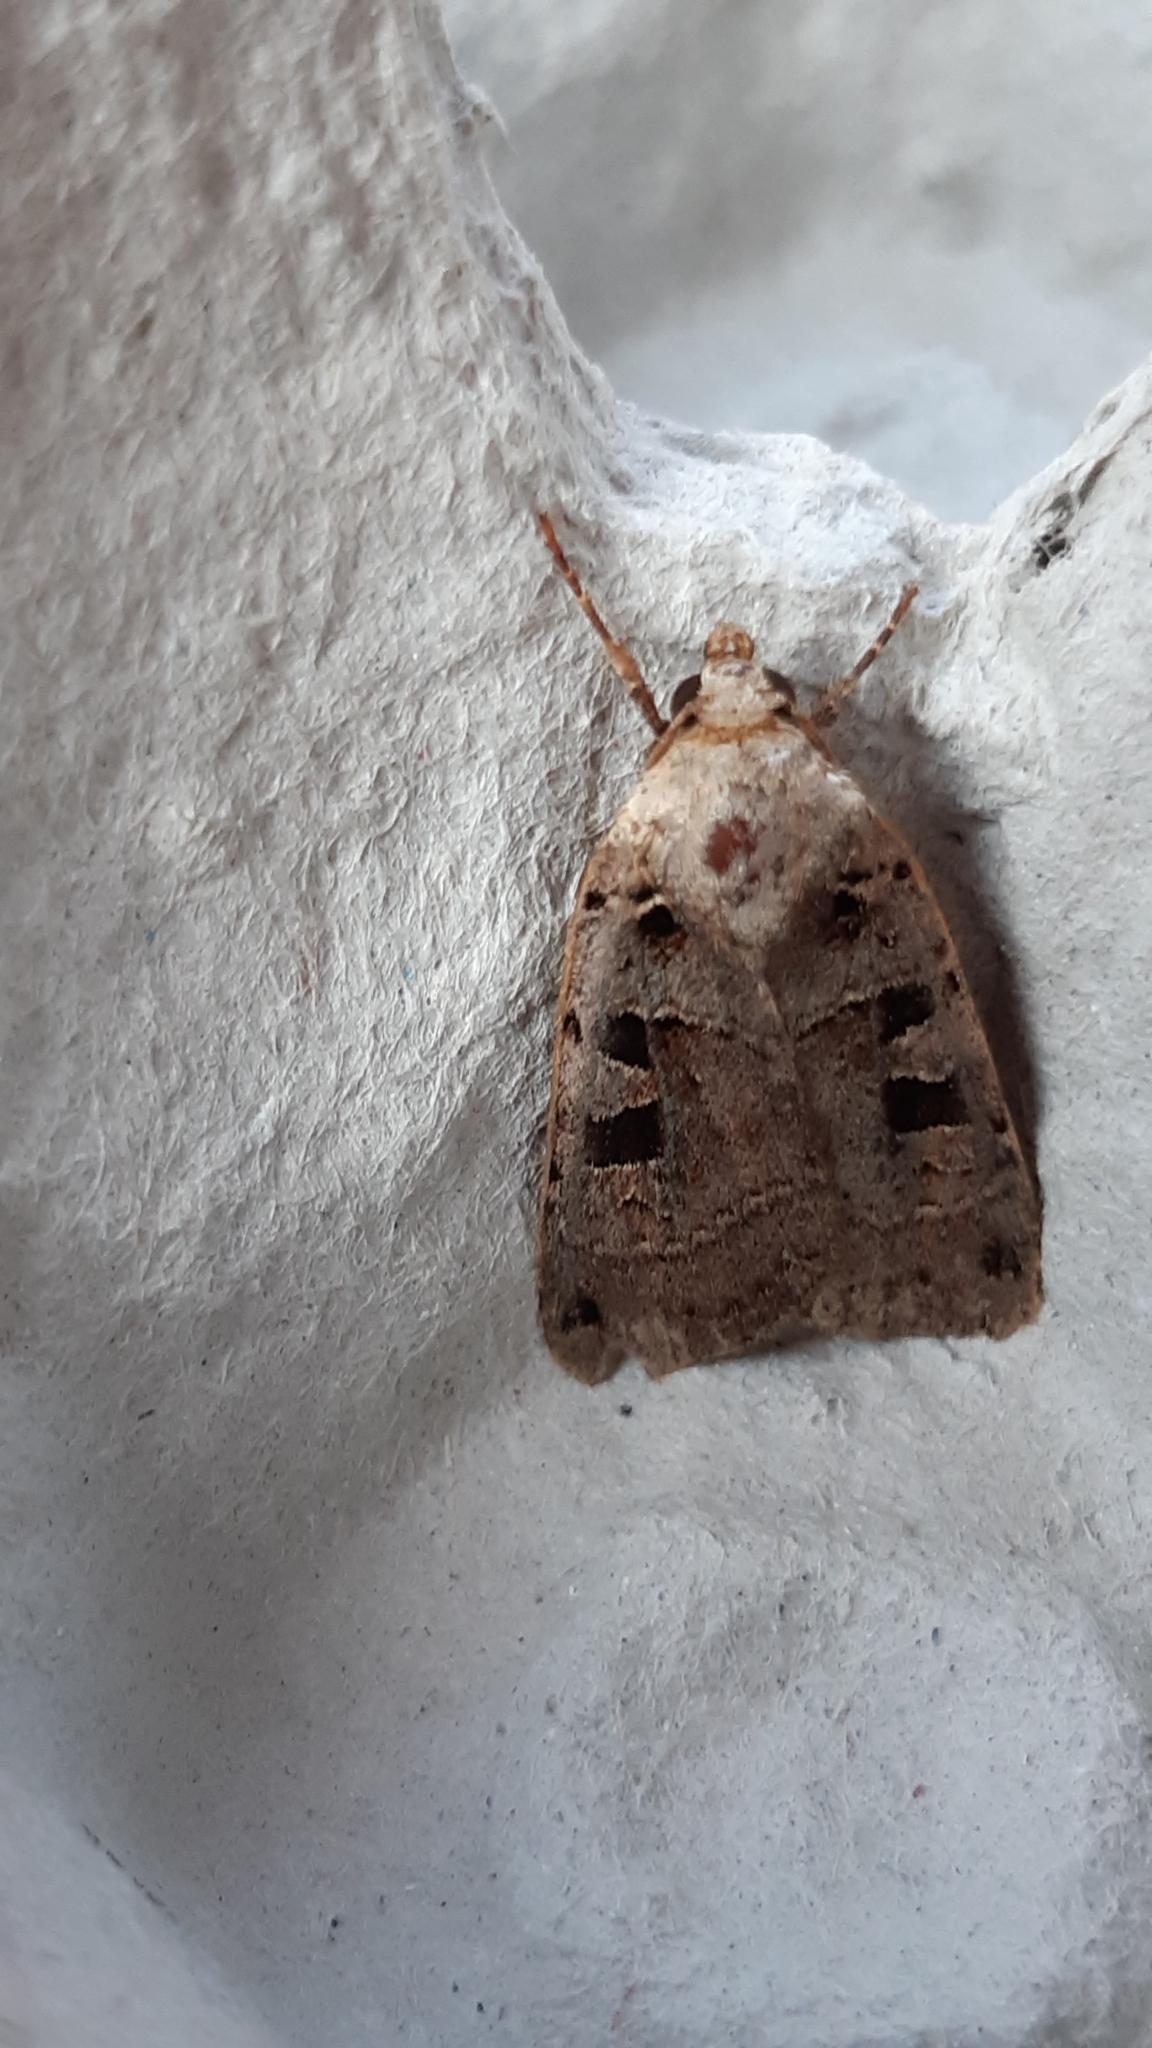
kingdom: Animalia
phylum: Arthropoda
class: Insecta
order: Lepidoptera
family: Noctuidae
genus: Xestia
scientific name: Xestia triangulum
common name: Double square-spot
